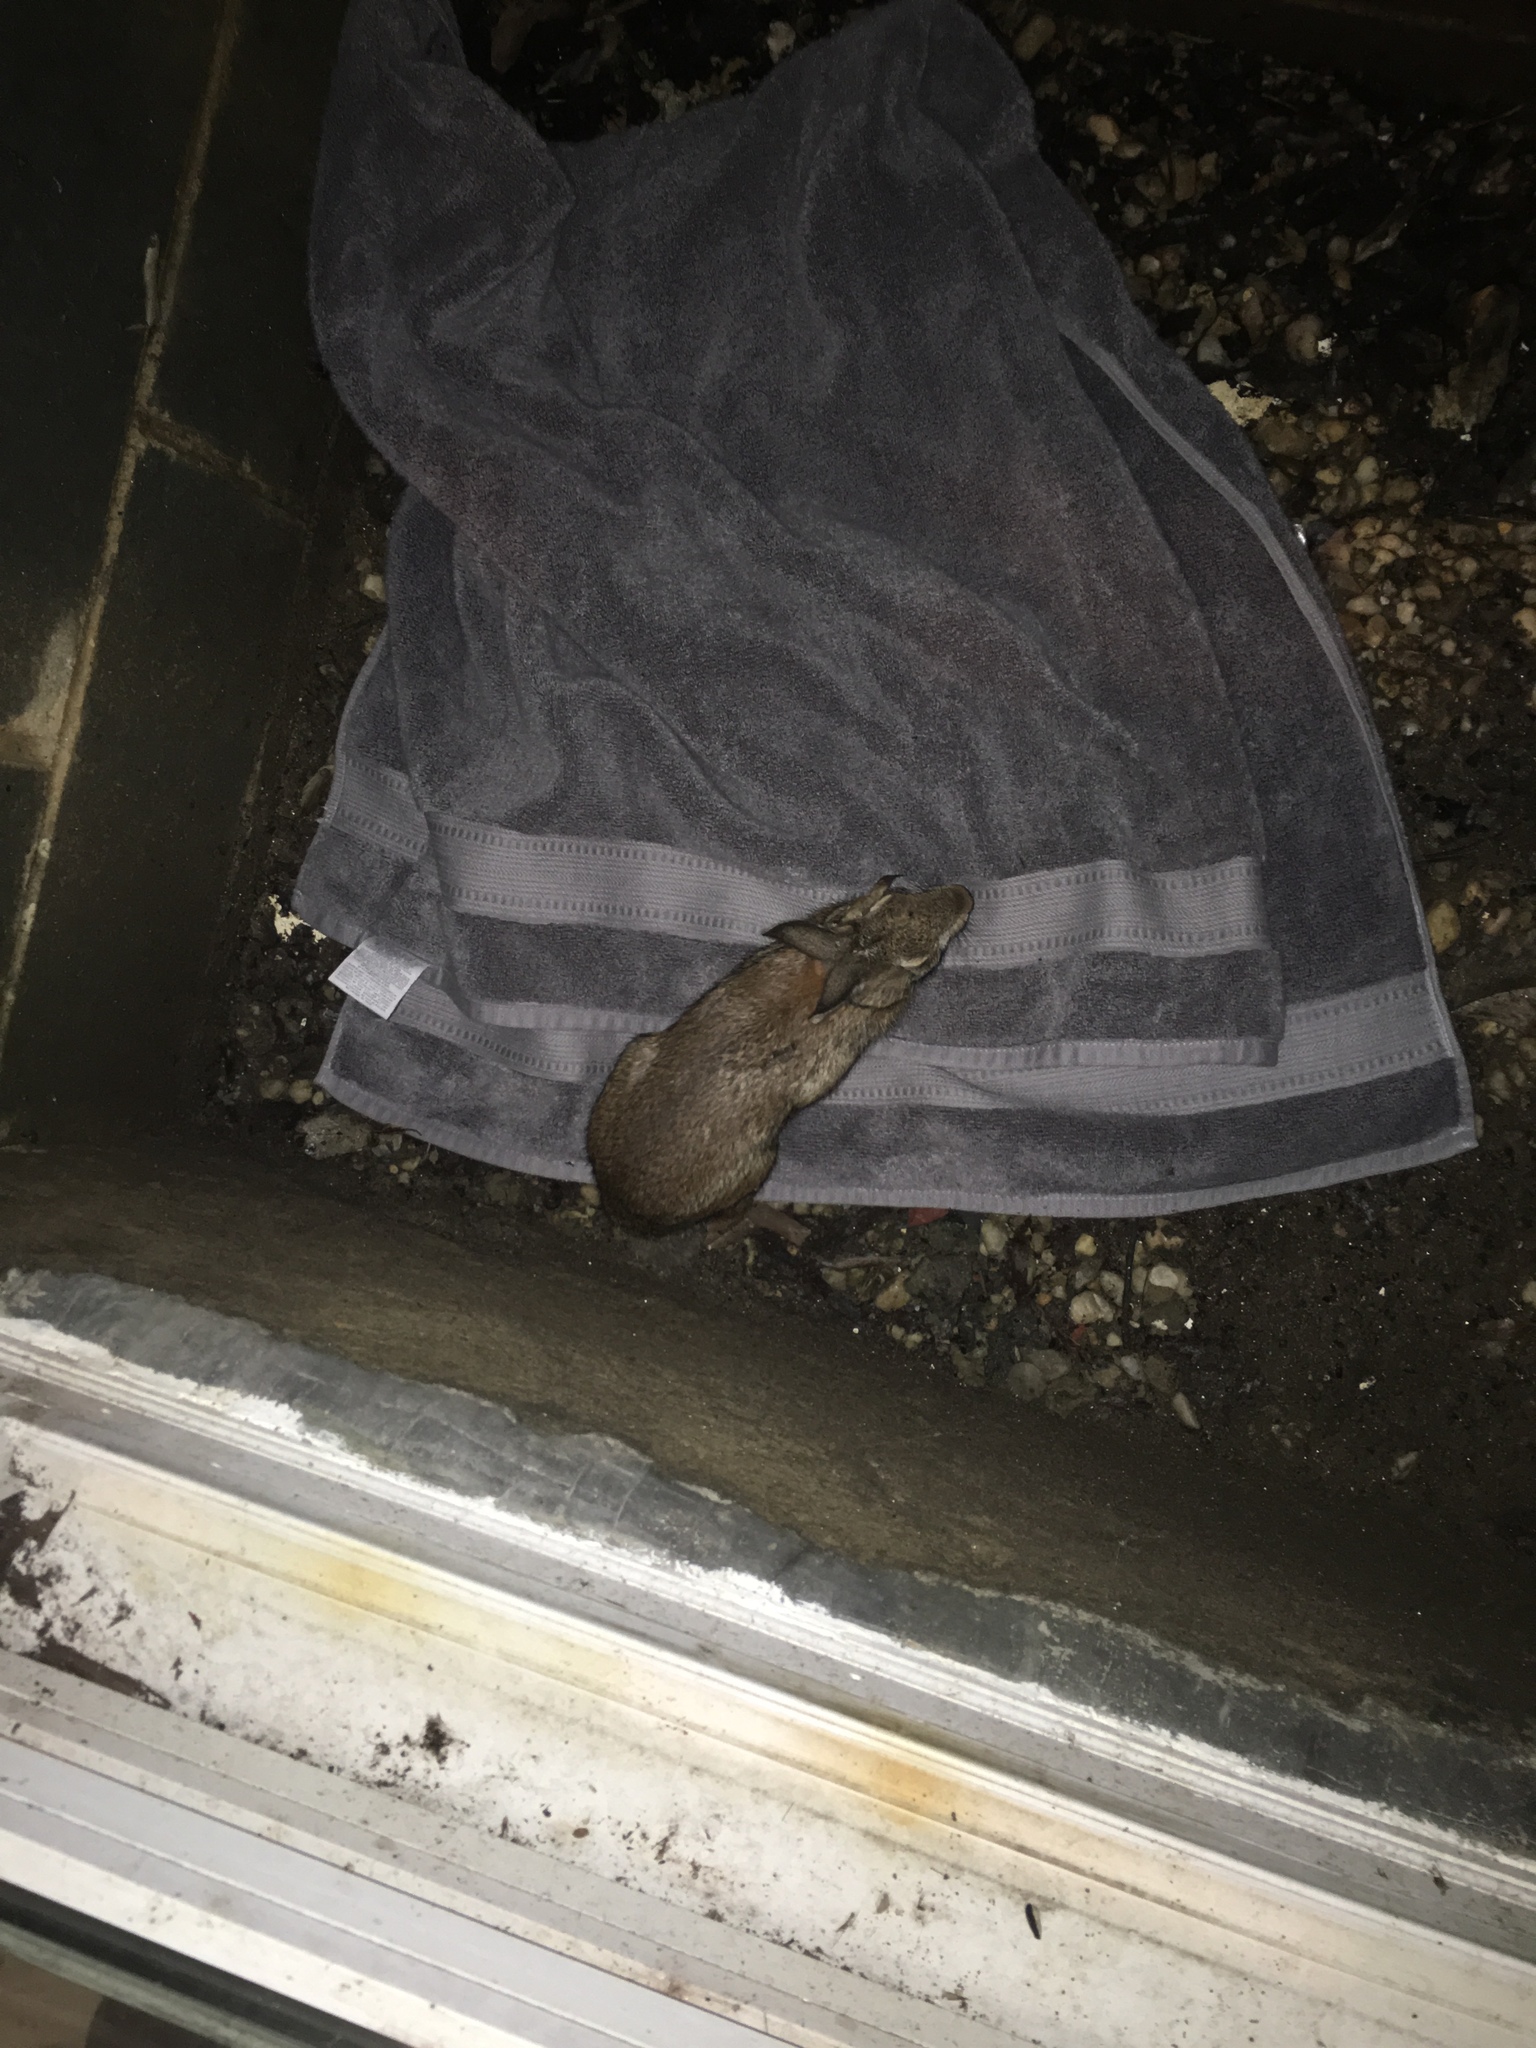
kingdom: Animalia
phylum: Chordata
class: Mammalia
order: Lagomorpha
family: Leporidae
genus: Sylvilagus
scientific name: Sylvilagus floridanus
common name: Eastern cottontail
